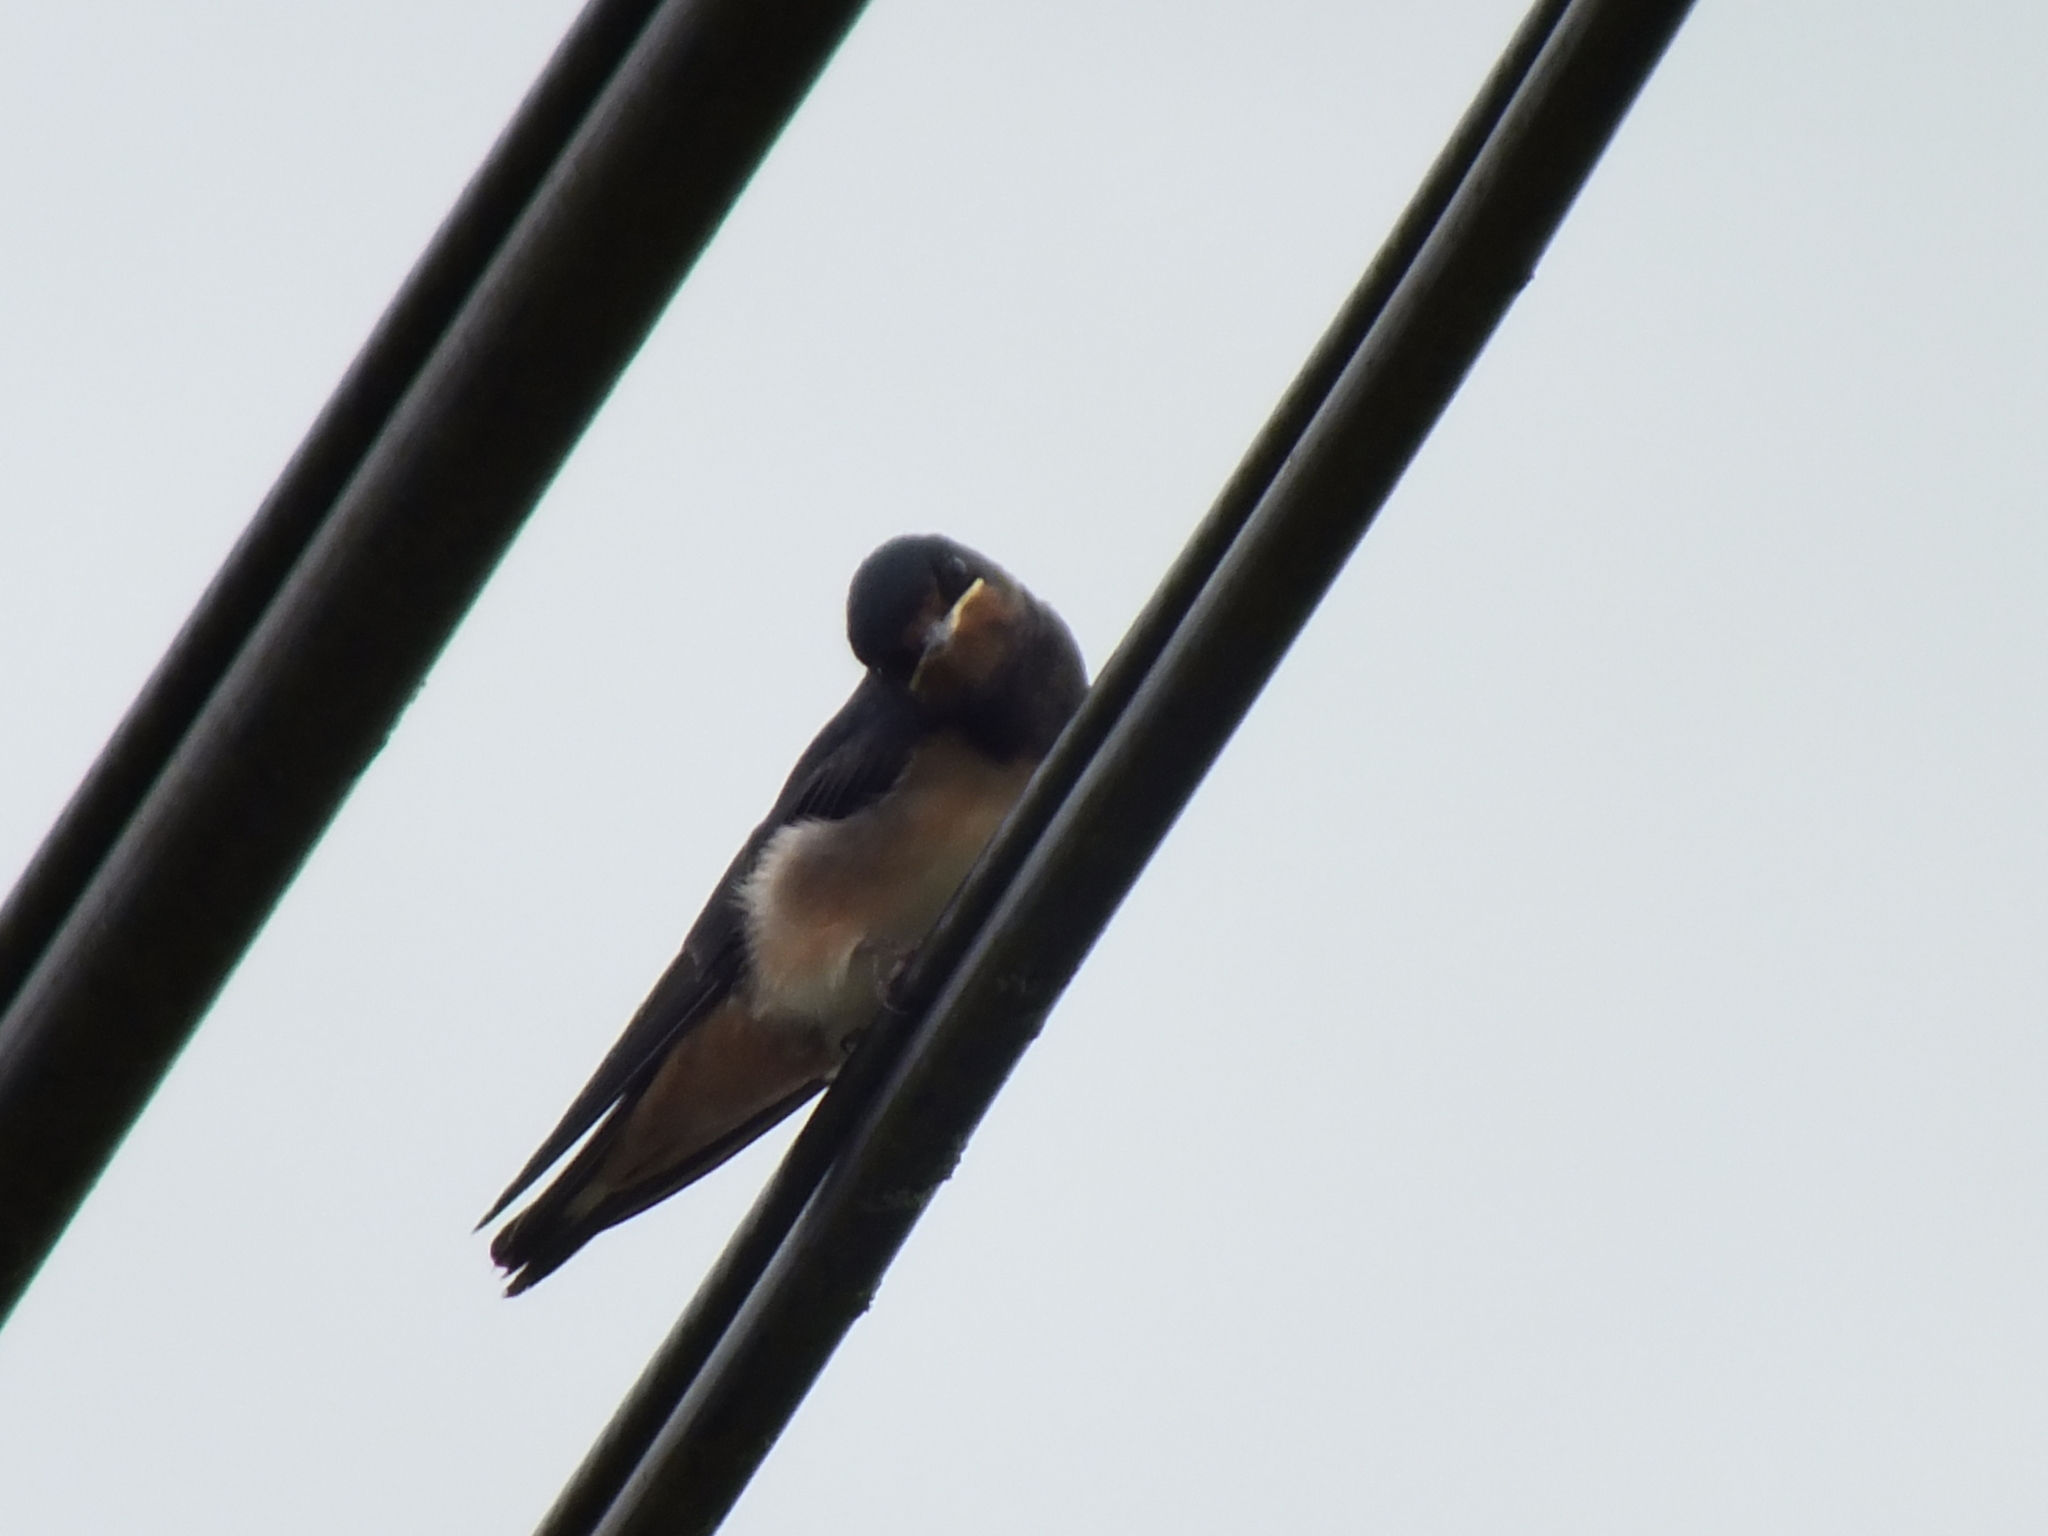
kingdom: Animalia
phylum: Chordata
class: Aves
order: Passeriformes
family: Hirundinidae
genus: Hirundo
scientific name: Hirundo rustica
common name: Barn swallow
